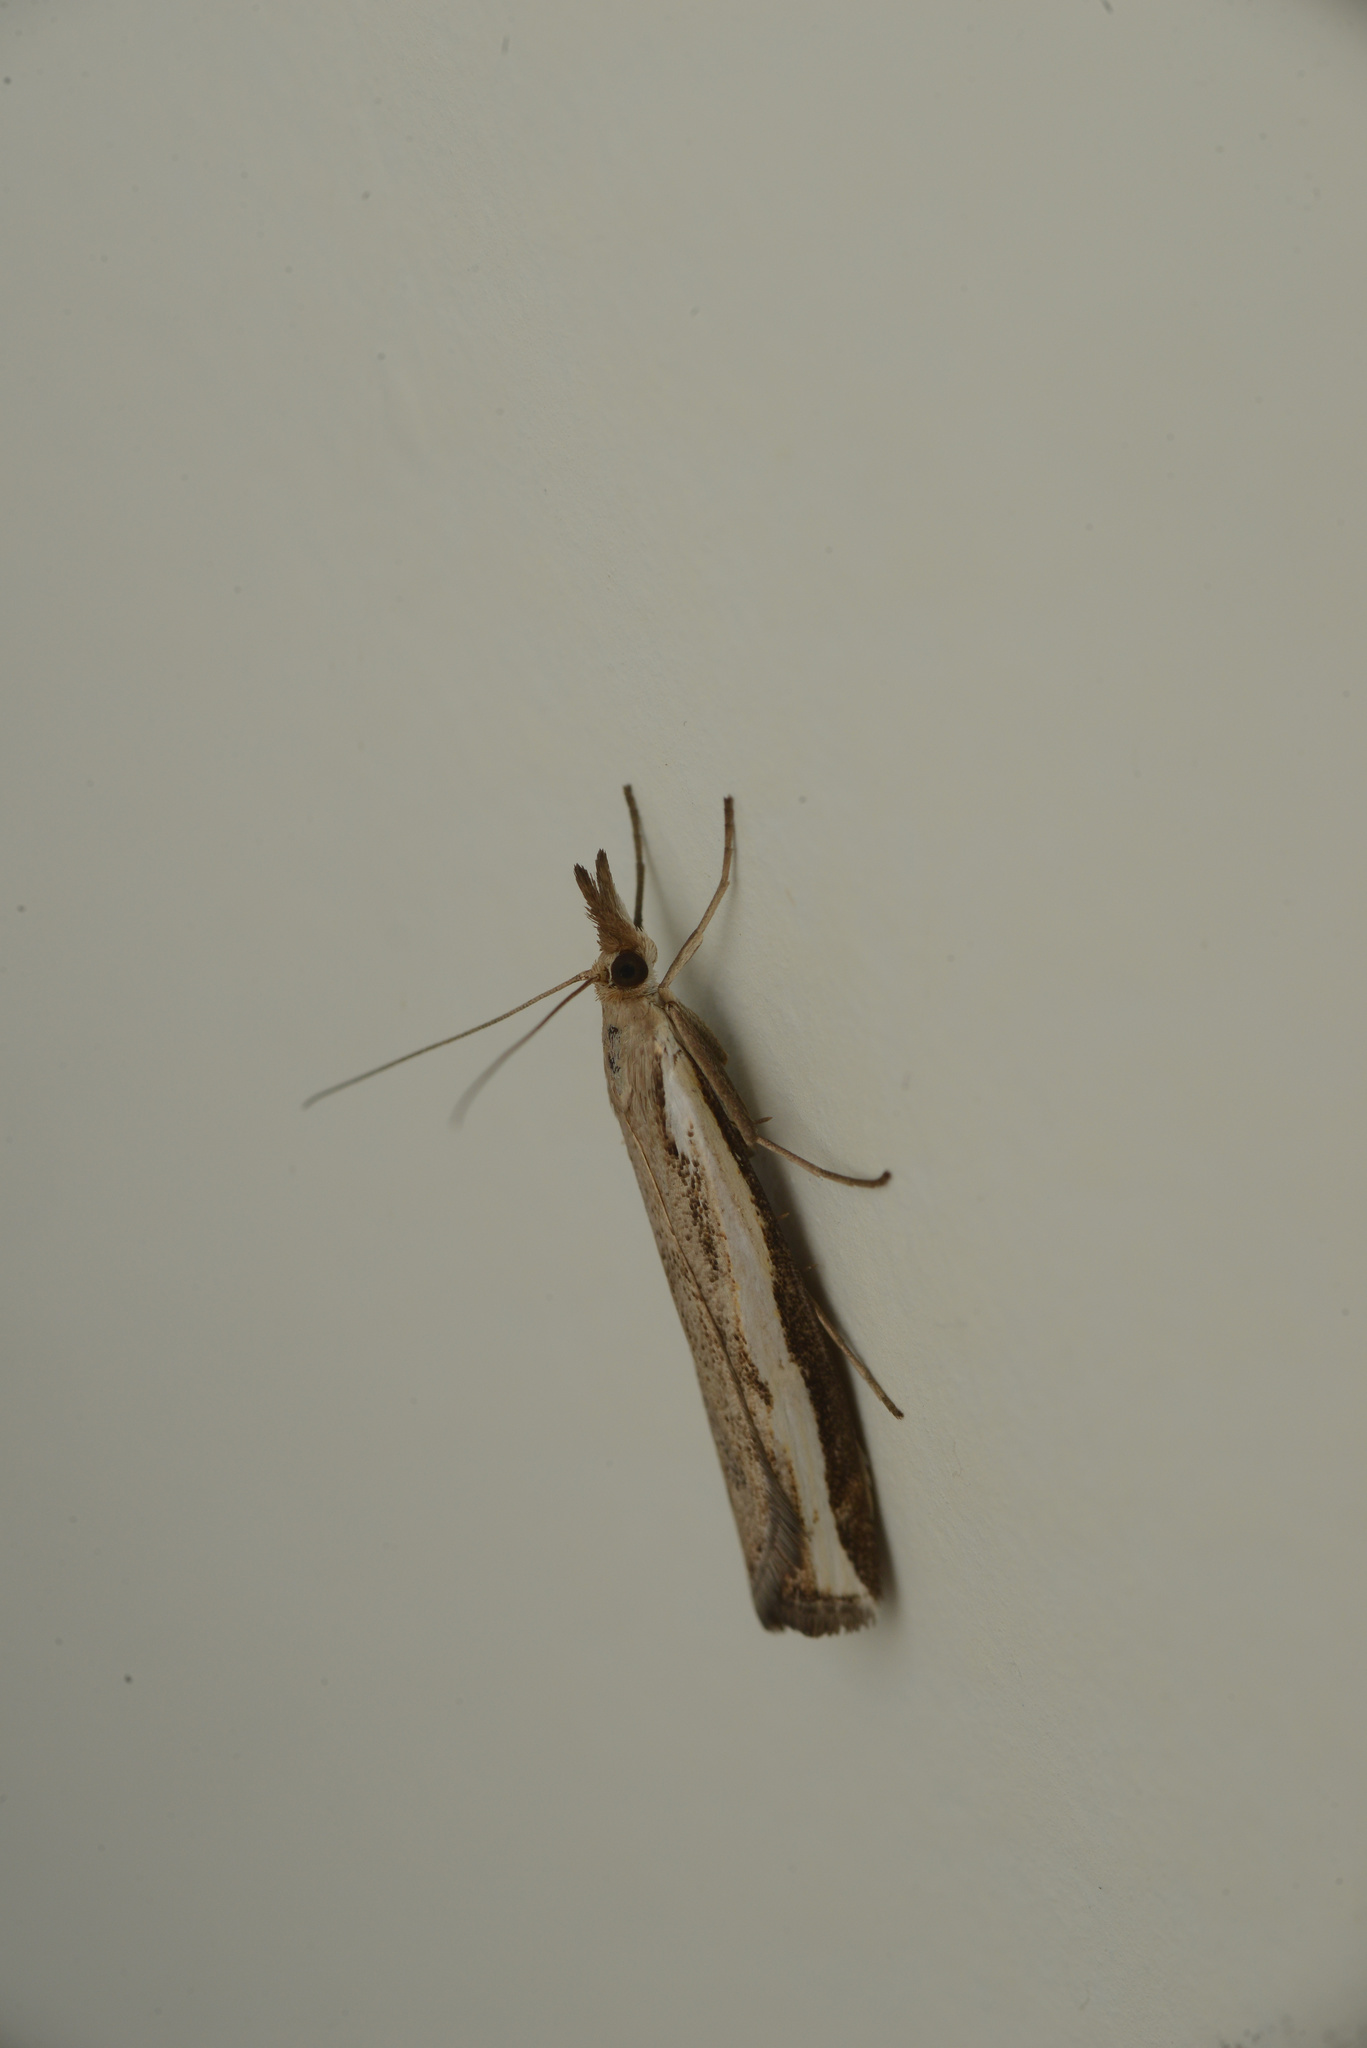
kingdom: Animalia
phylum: Arthropoda
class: Insecta
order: Lepidoptera
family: Crambidae
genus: Orocrambus
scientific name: Orocrambus flexuosellus
